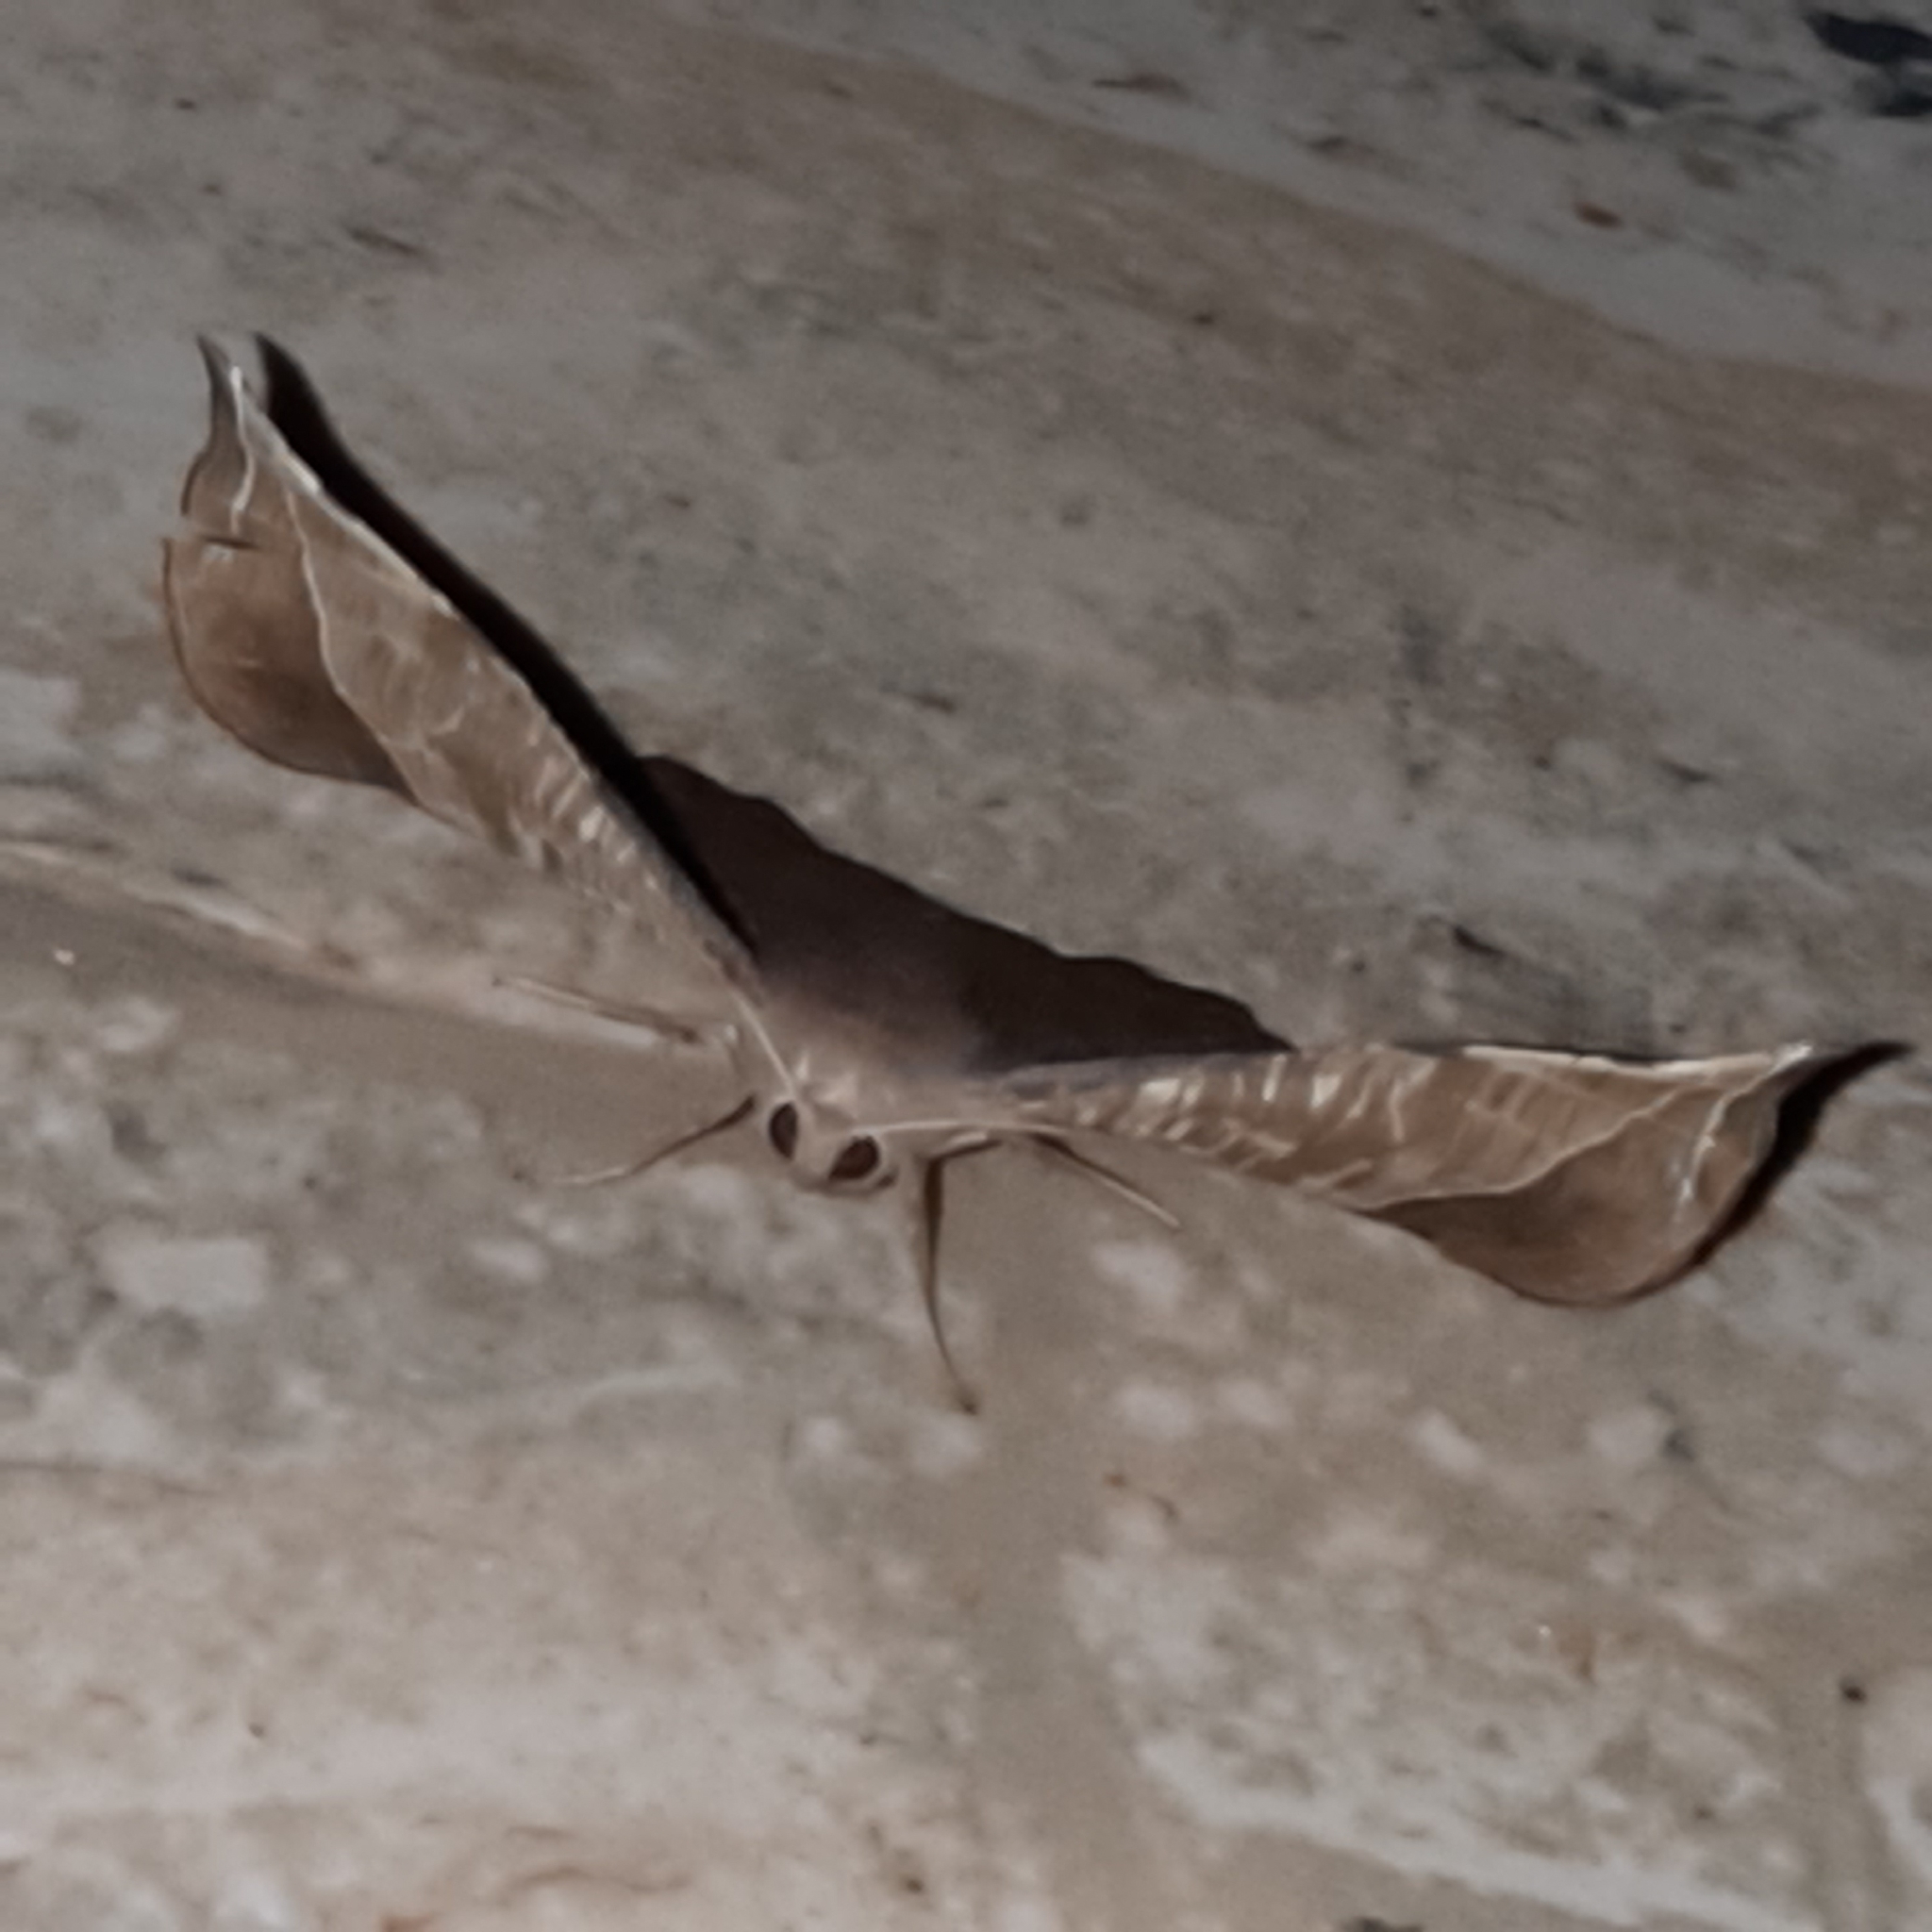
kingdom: Animalia
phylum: Arthropoda
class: Insecta
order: Lepidoptera
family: Geometridae
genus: Hygrochroma
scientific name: Hygrochroma olivinaria
